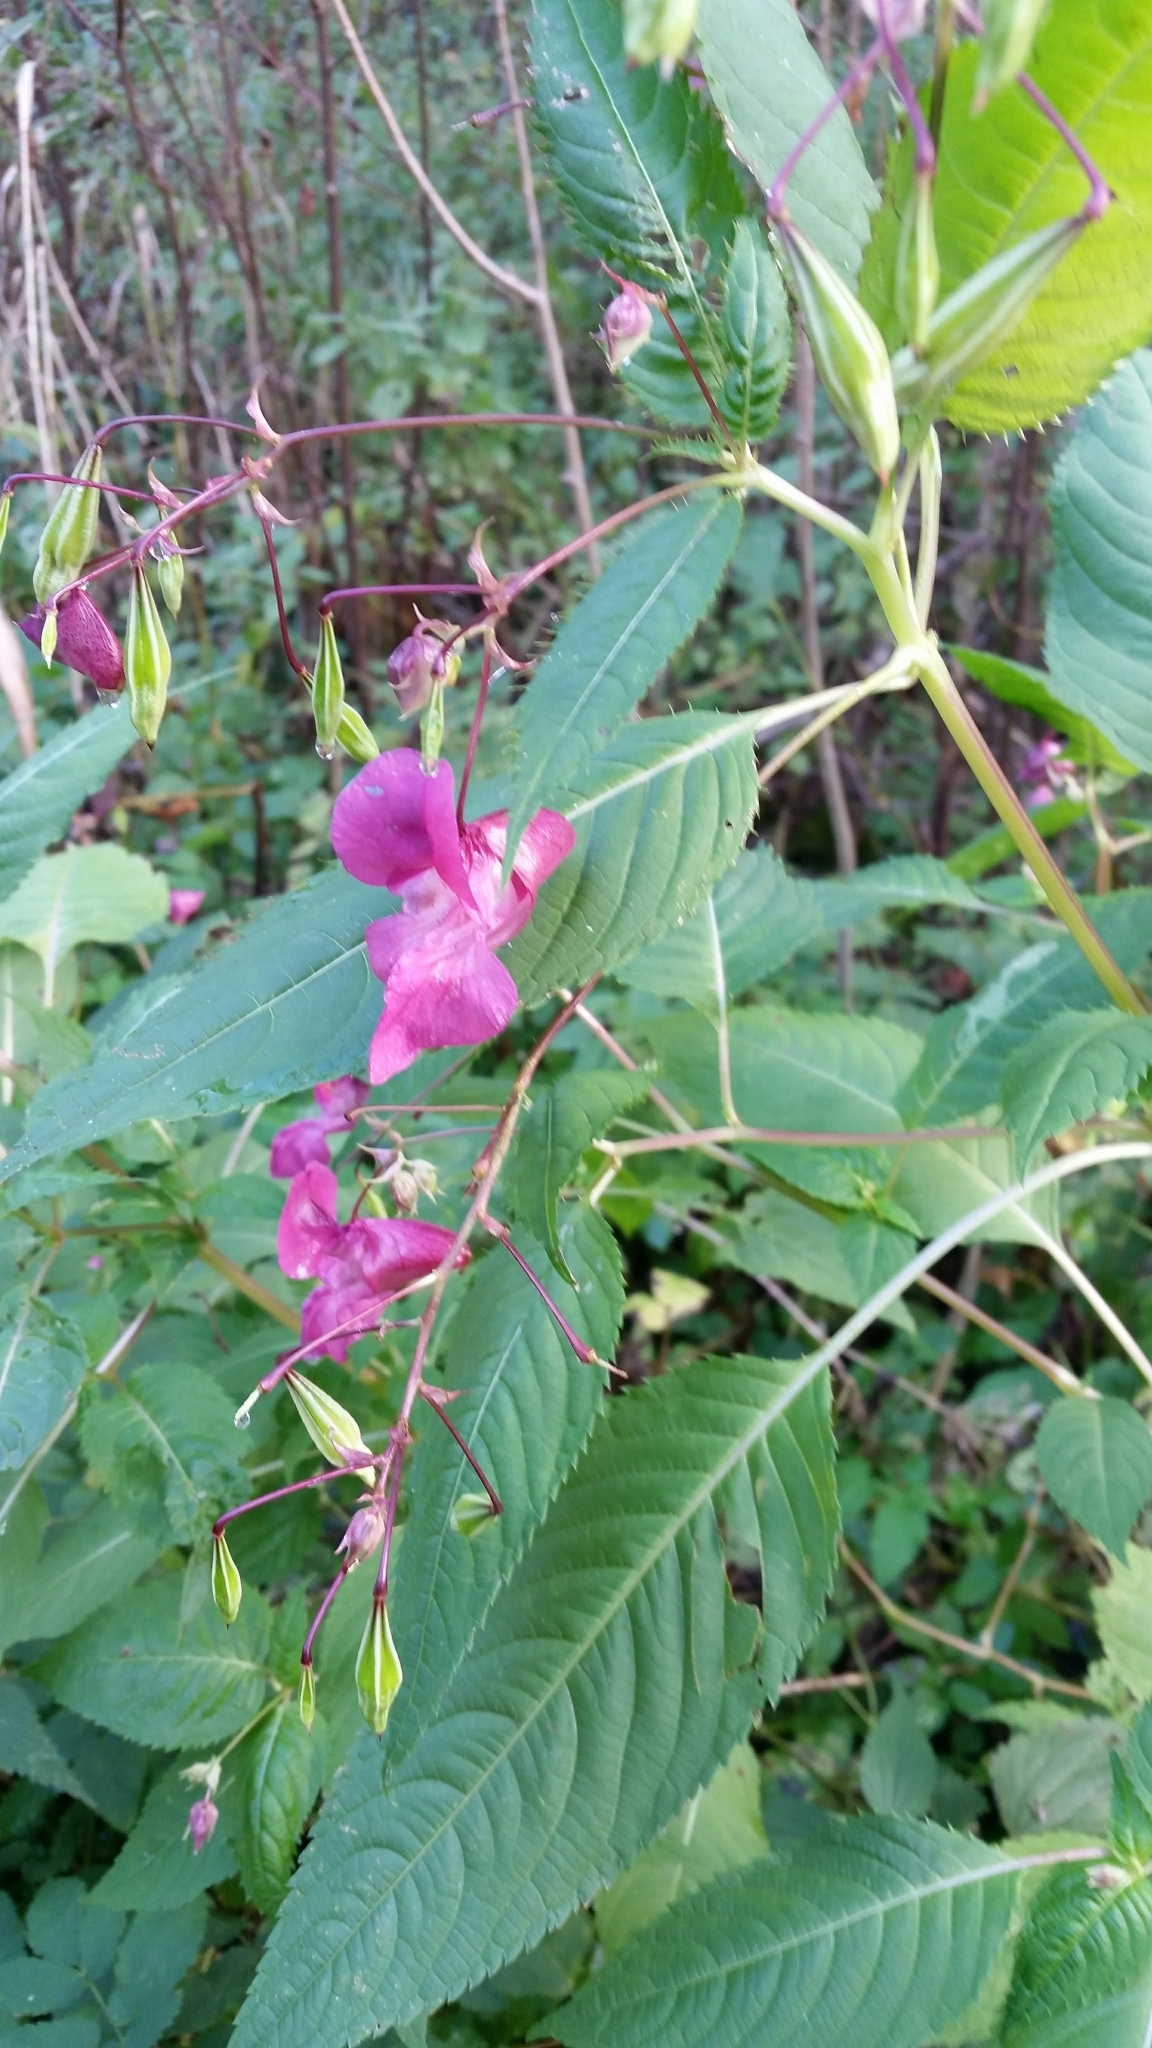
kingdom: Plantae
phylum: Tracheophyta
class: Magnoliopsida
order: Ericales
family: Balsaminaceae
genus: Impatiens
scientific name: Impatiens glandulifera
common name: Himalayan balsam
